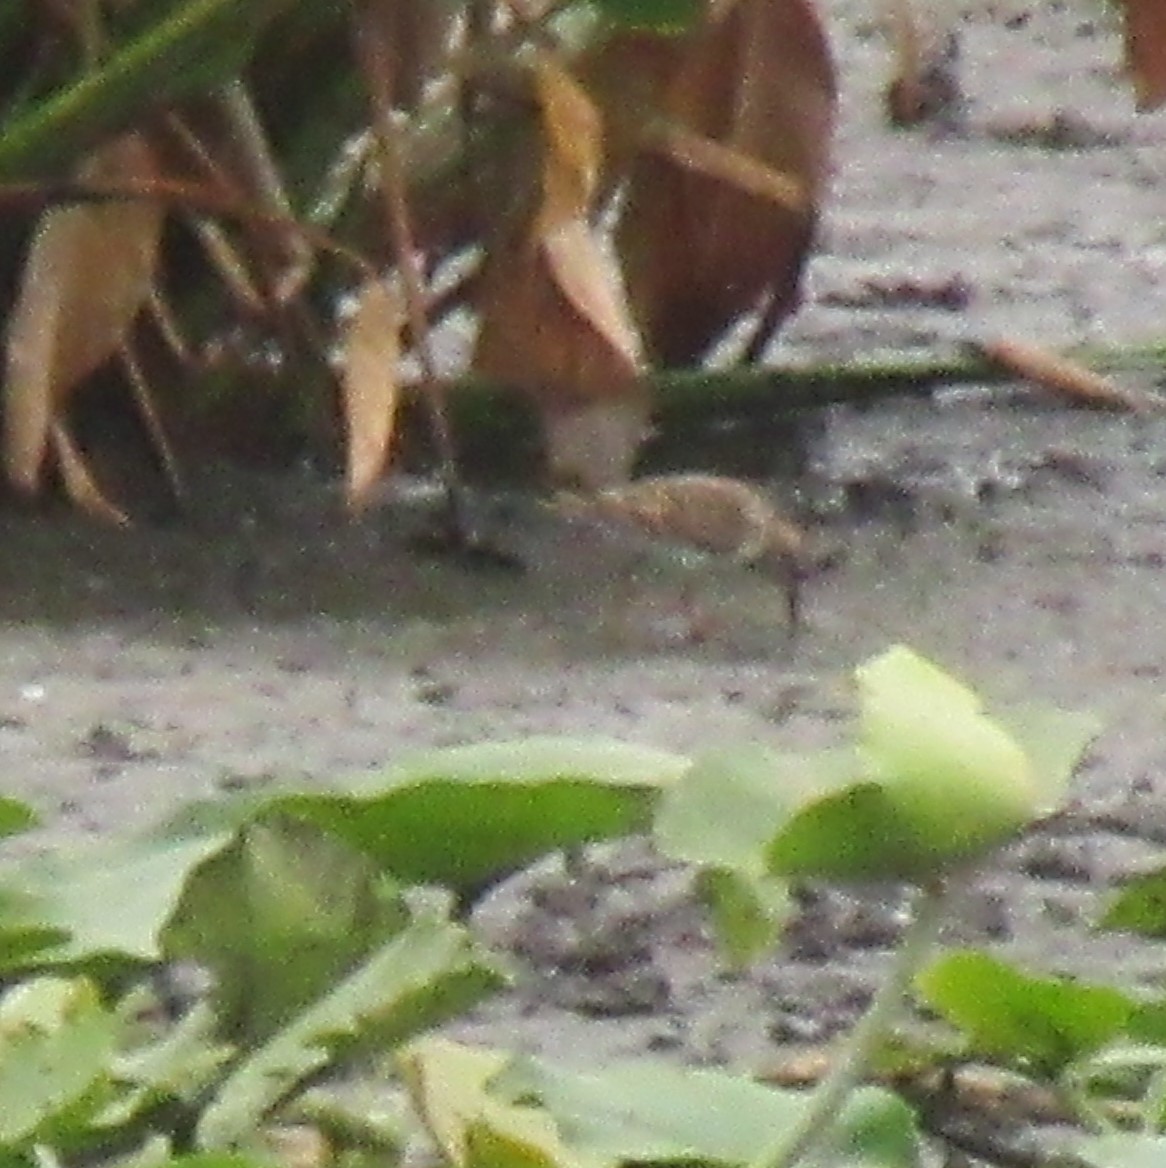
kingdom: Animalia
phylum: Chordata
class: Aves
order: Charadriiformes
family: Scolopacidae
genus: Calidris
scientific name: Calidris minutilla
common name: Least sandpiper
